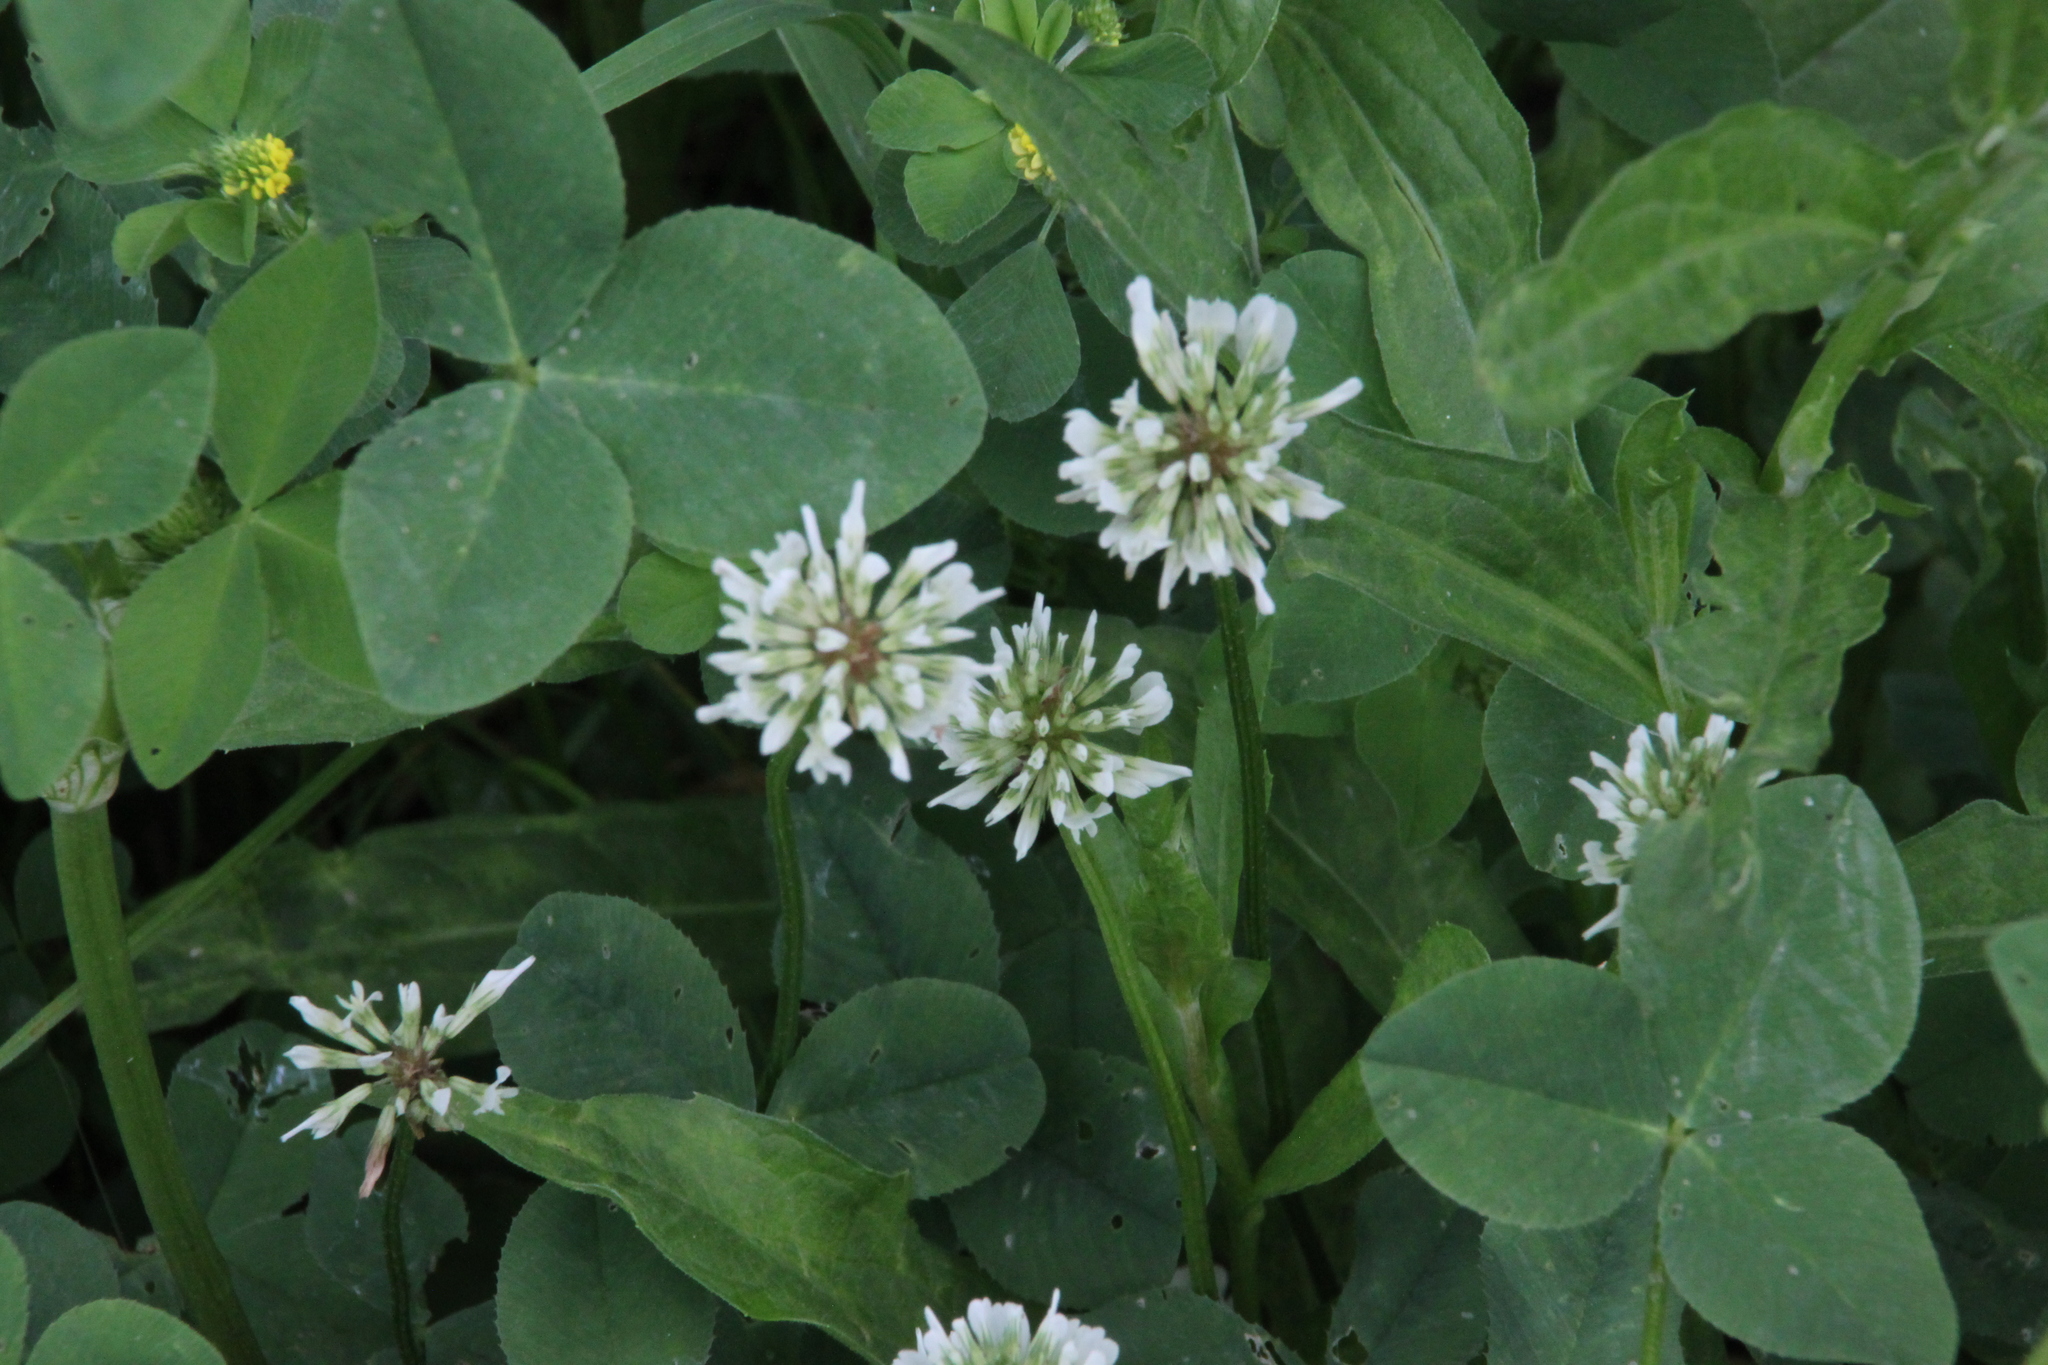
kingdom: Plantae
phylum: Tracheophyta
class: Magnoliopsida
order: Fabales
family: Fabaceae
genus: Trifolium
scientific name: Trifolium repens
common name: White clover
